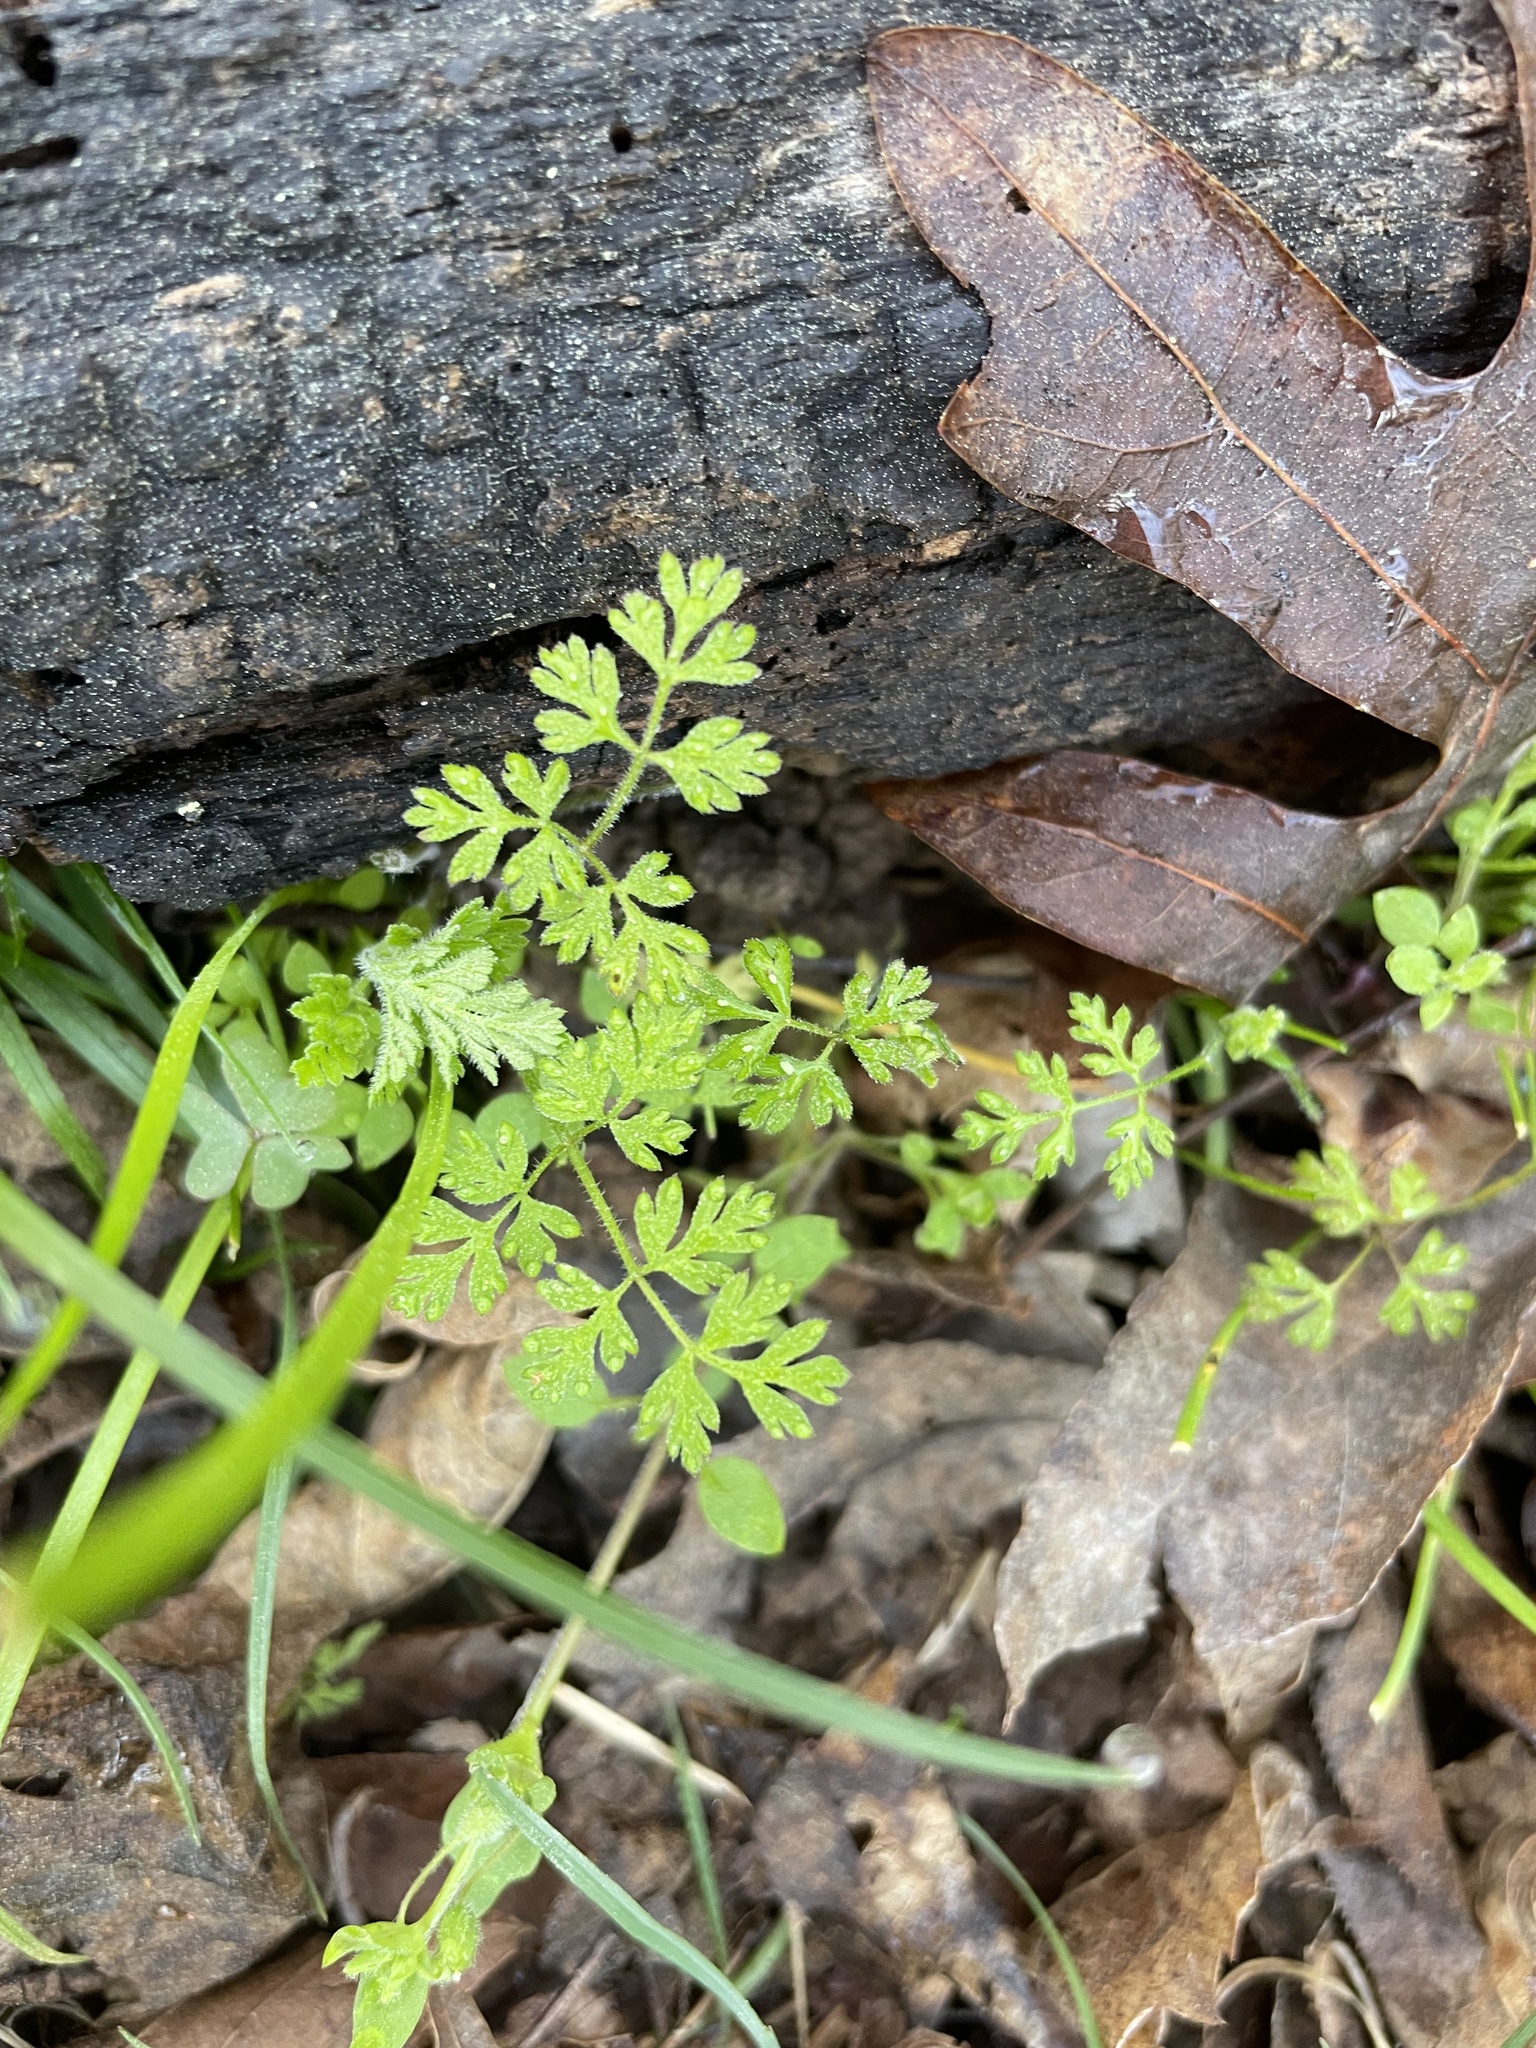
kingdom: Plantae
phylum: Tracheophyta
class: Magnoliopsida
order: Apiales
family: Apiaceae
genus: Chaerophyllum
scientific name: Chaerophyllum tainturieri
